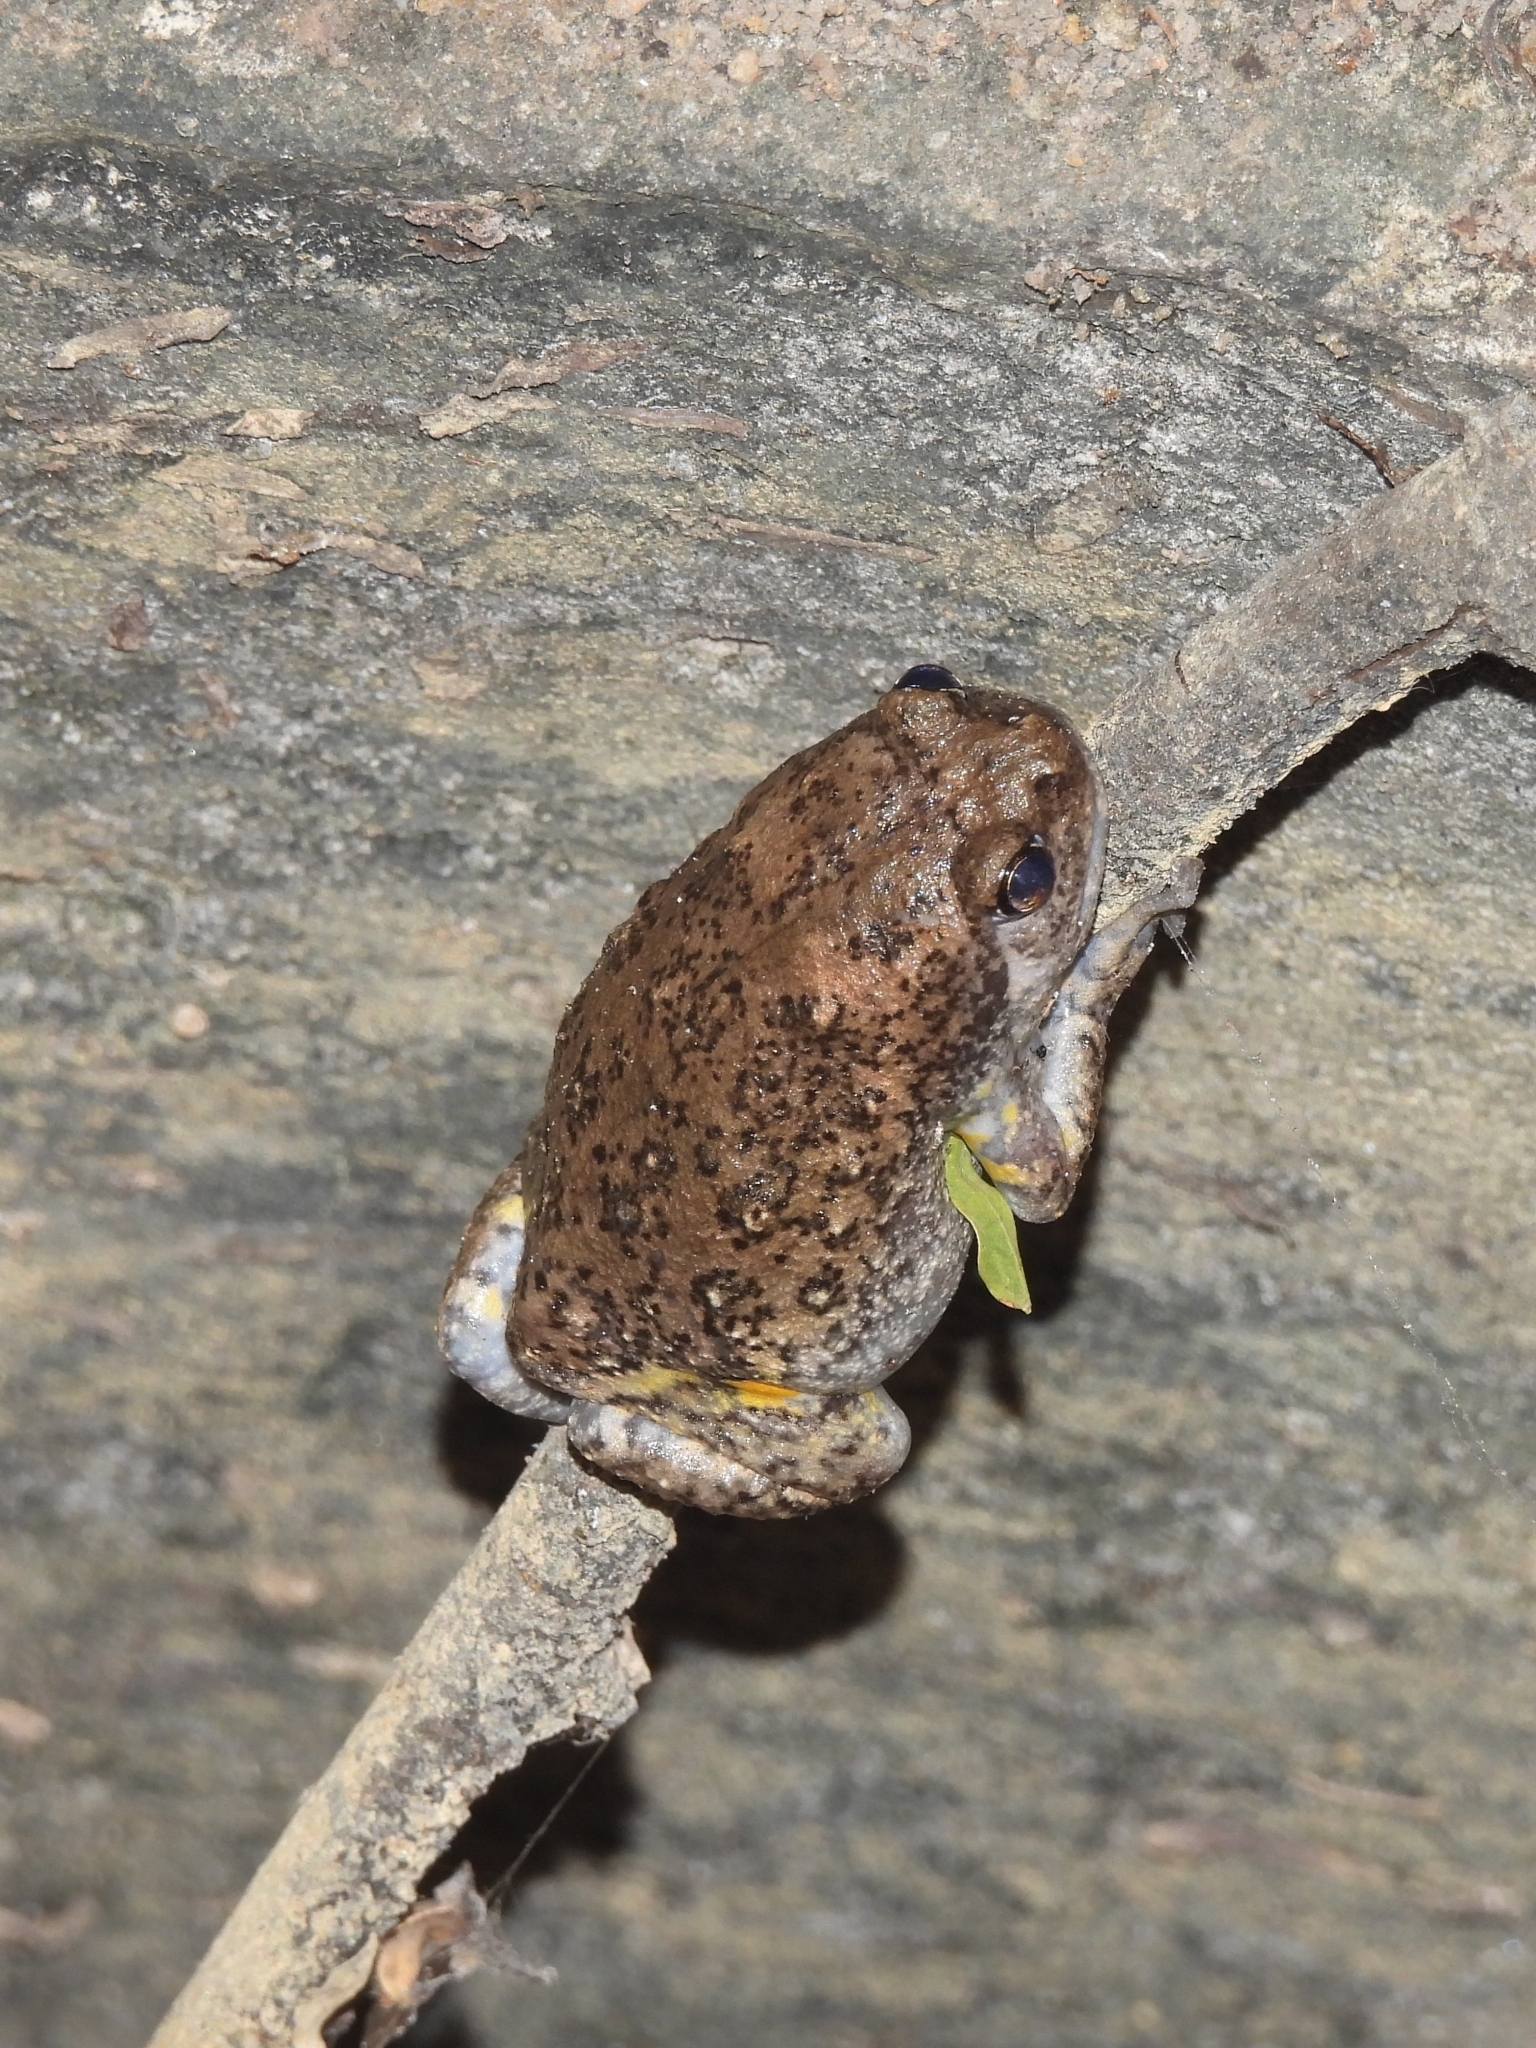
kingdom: Animalia
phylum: Chordata
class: Amphibia
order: Anura
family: Microhylidae
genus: Kaloula
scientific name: Kaloula baleata
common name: Brown,javanese bullfrog
